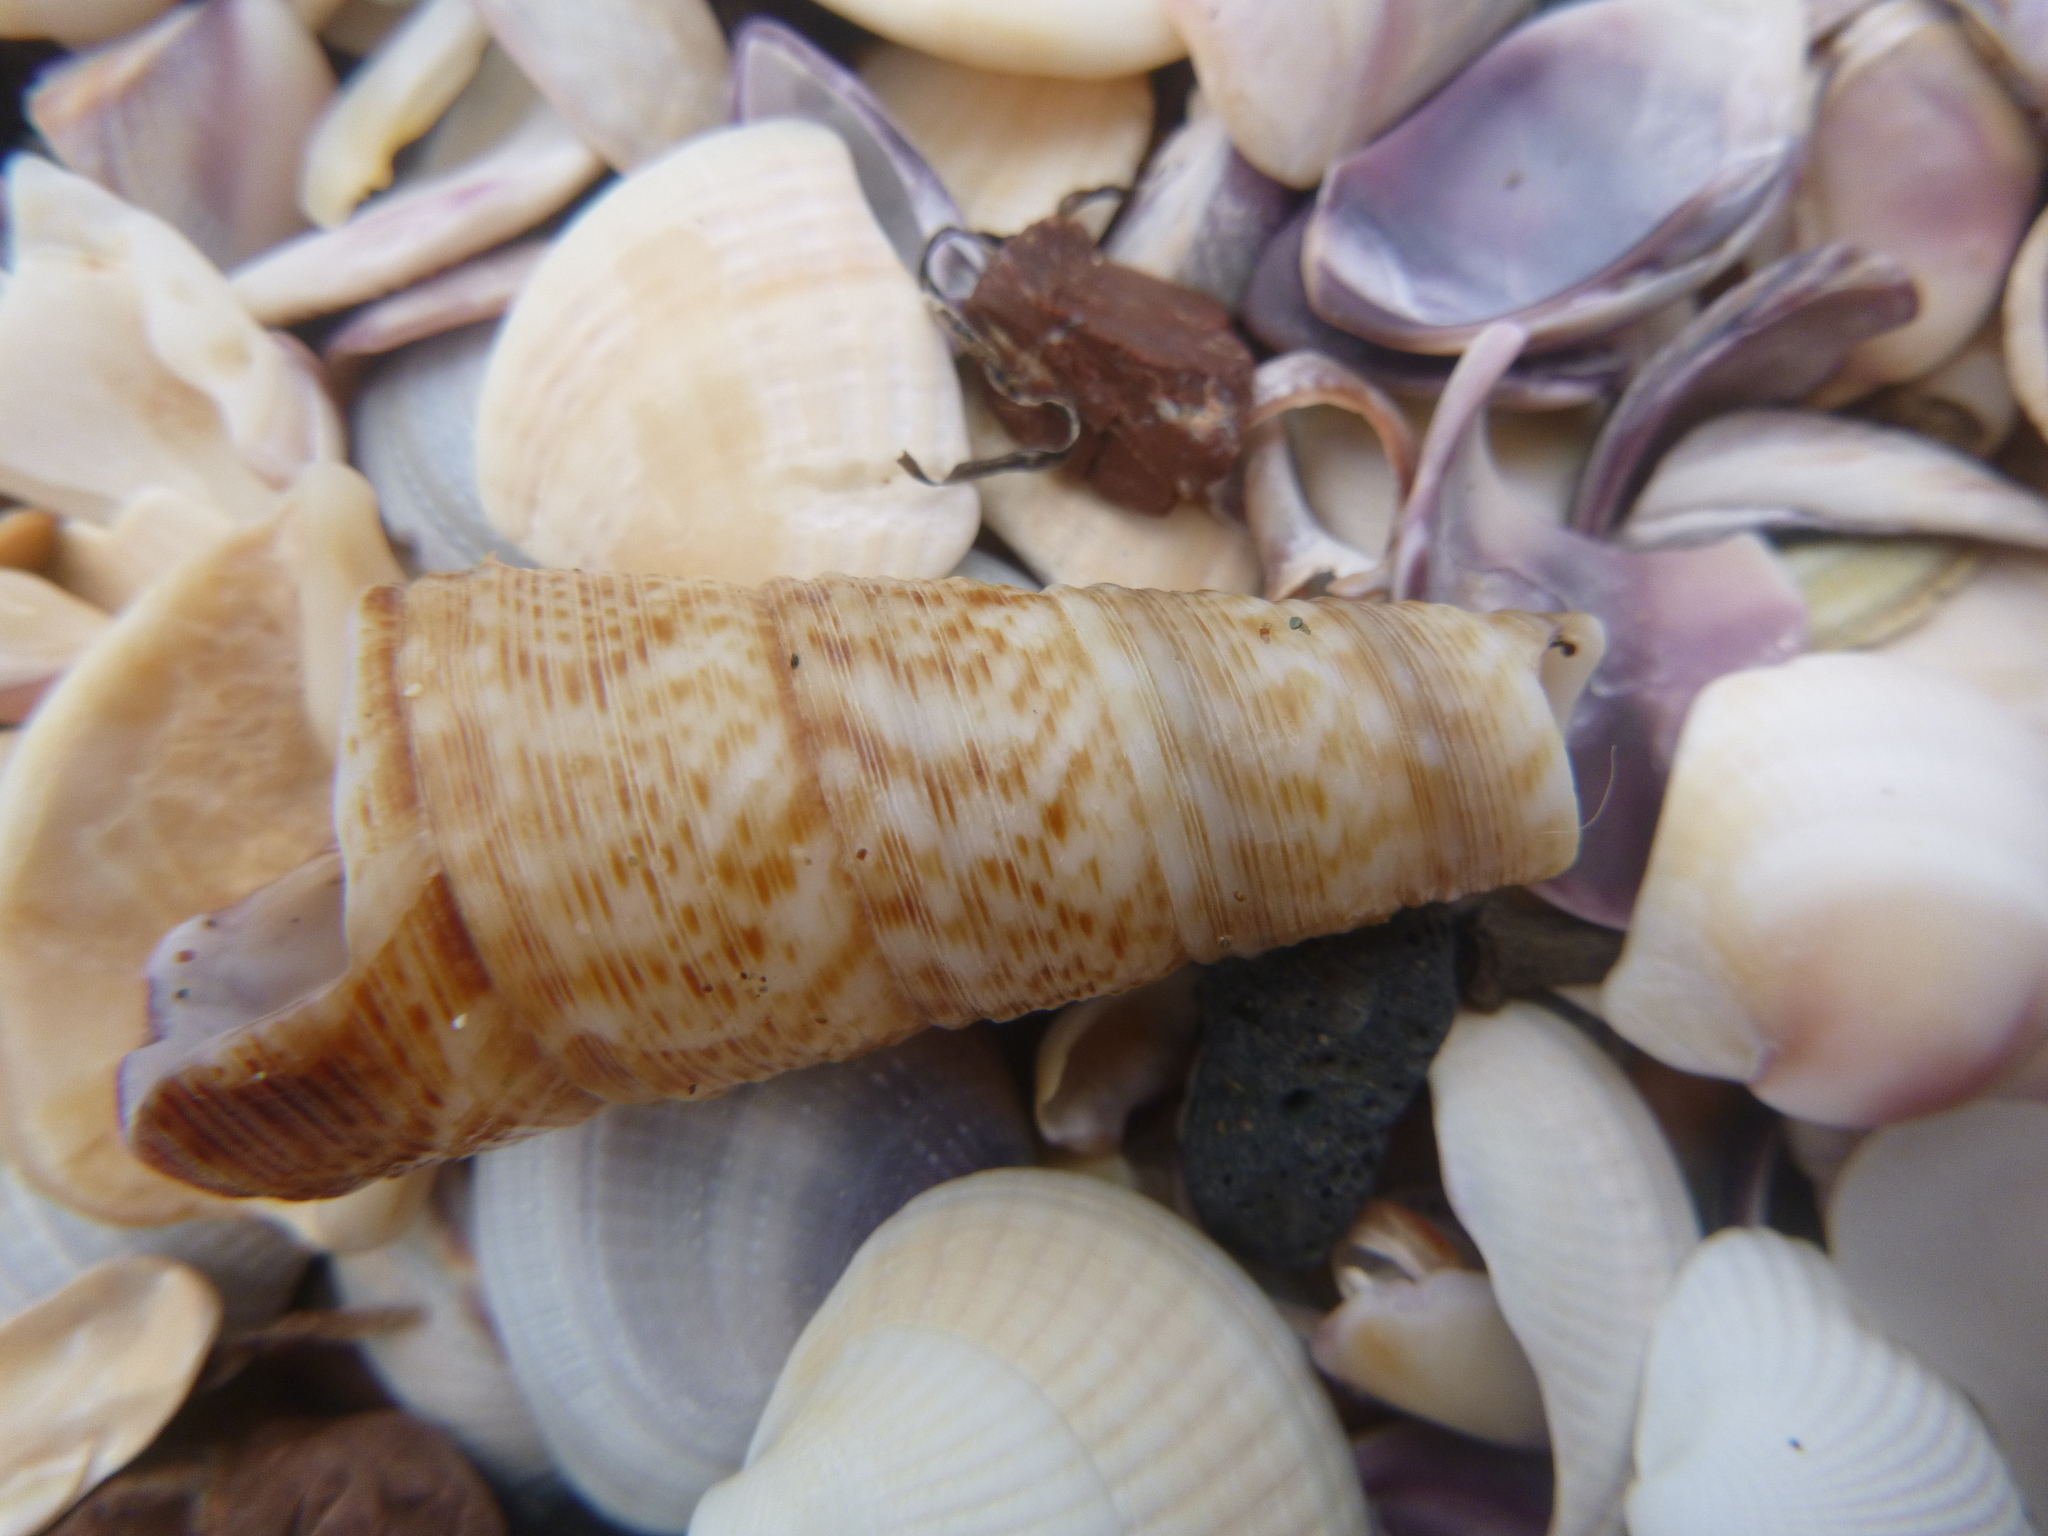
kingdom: Animalia
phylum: Mollusca
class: Gastropoda
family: Turritellidae
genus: Maoricolpus
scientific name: Maoricolpus roseus
